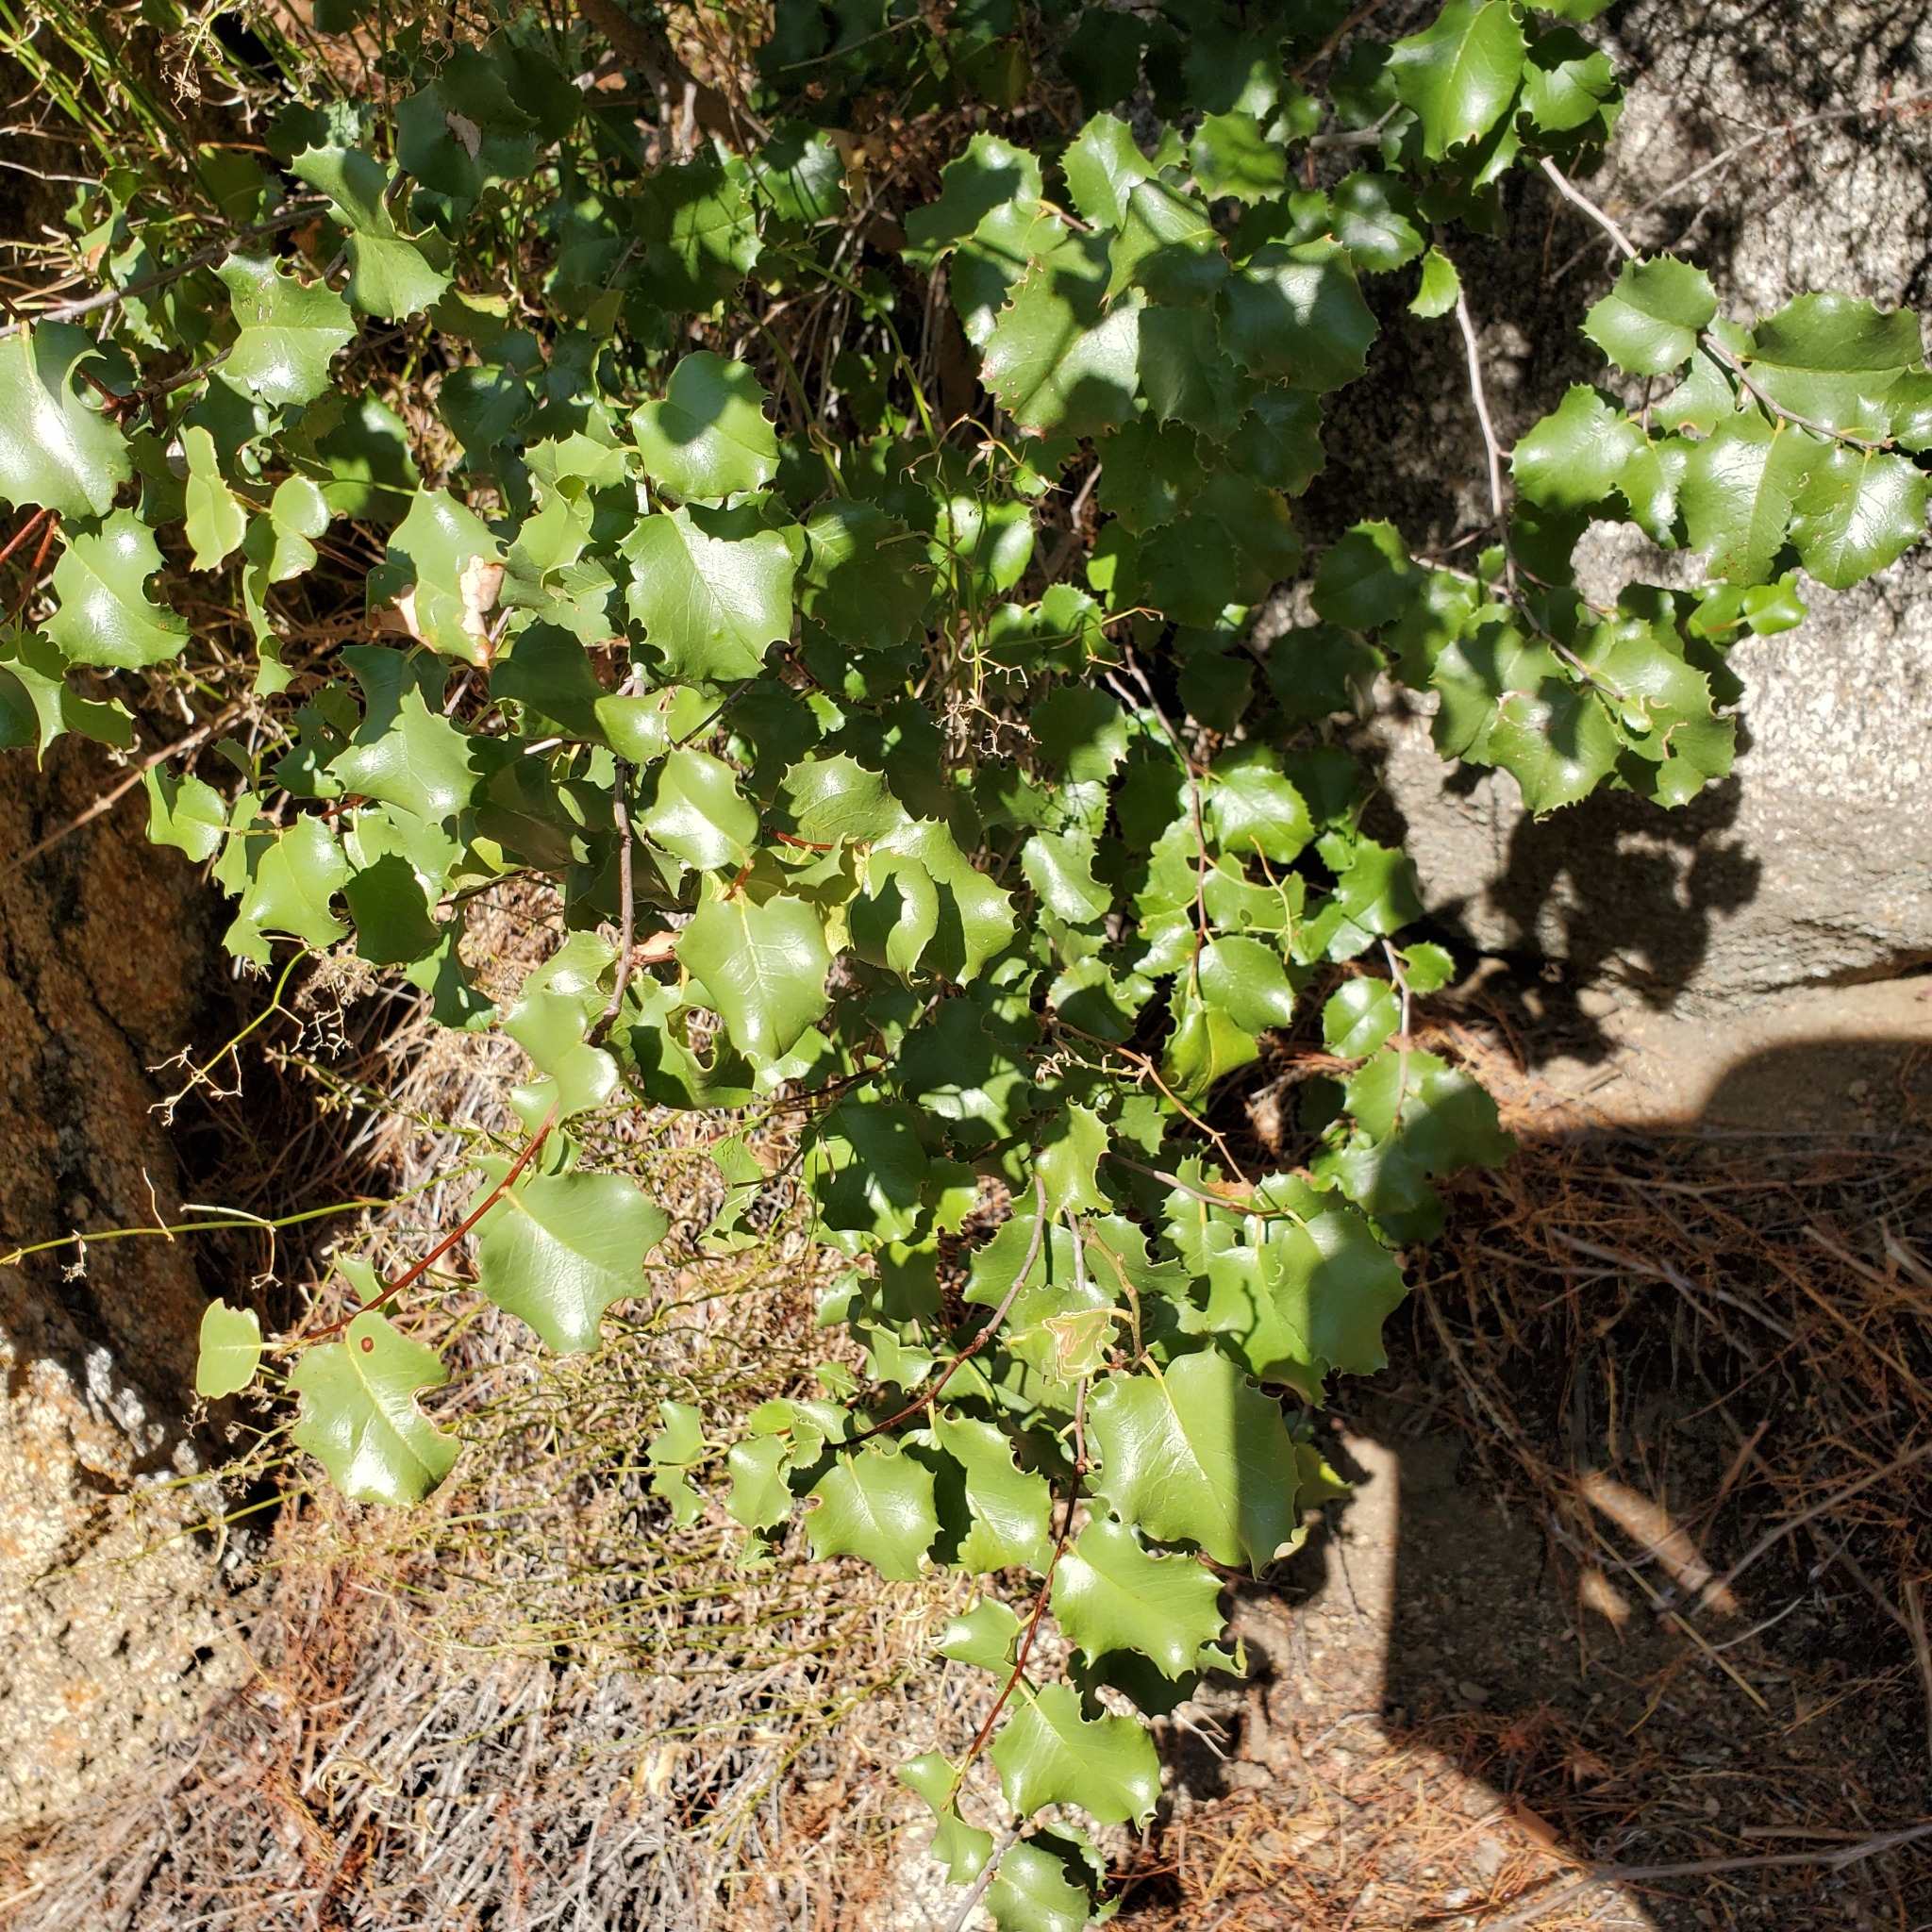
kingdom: Plantae
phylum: Tracheophyta
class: Magnoliopsida
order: Rosales
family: Rosaceae
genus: Prunus
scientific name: Prunus ilicifolia
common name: Hollyleaf cherry
